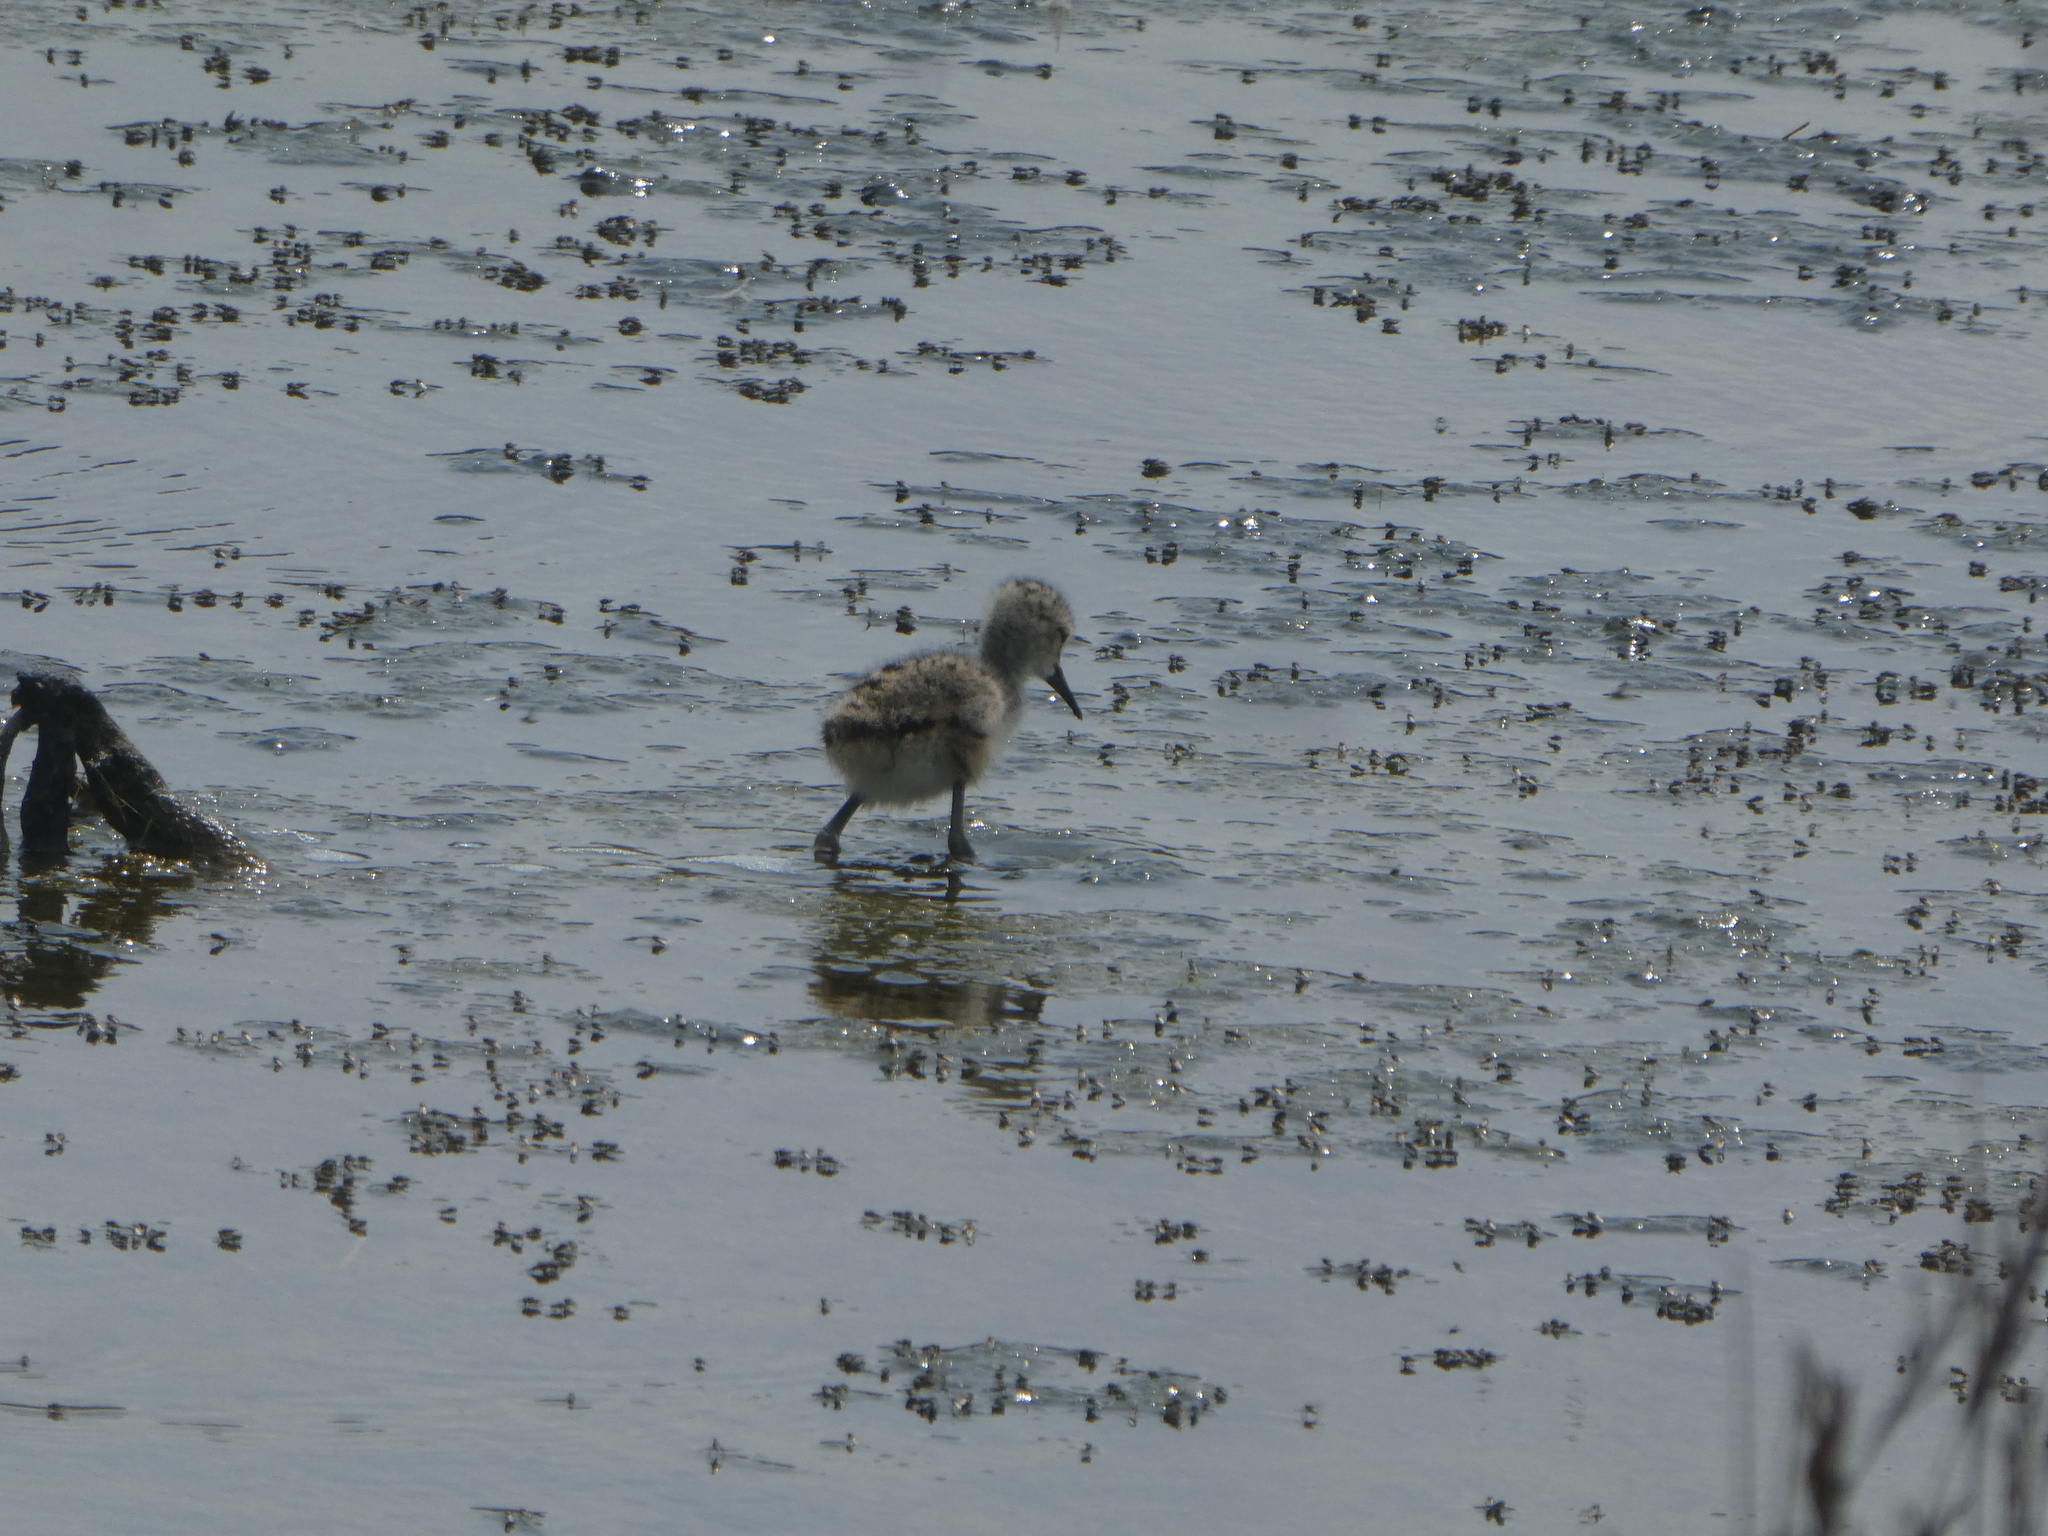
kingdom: Animalia
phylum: Chordata
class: Aves
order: Charadriiformes
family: Recurvirostridae
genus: Himantopus
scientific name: Himantopus leucocephalus
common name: White-headed stilt
